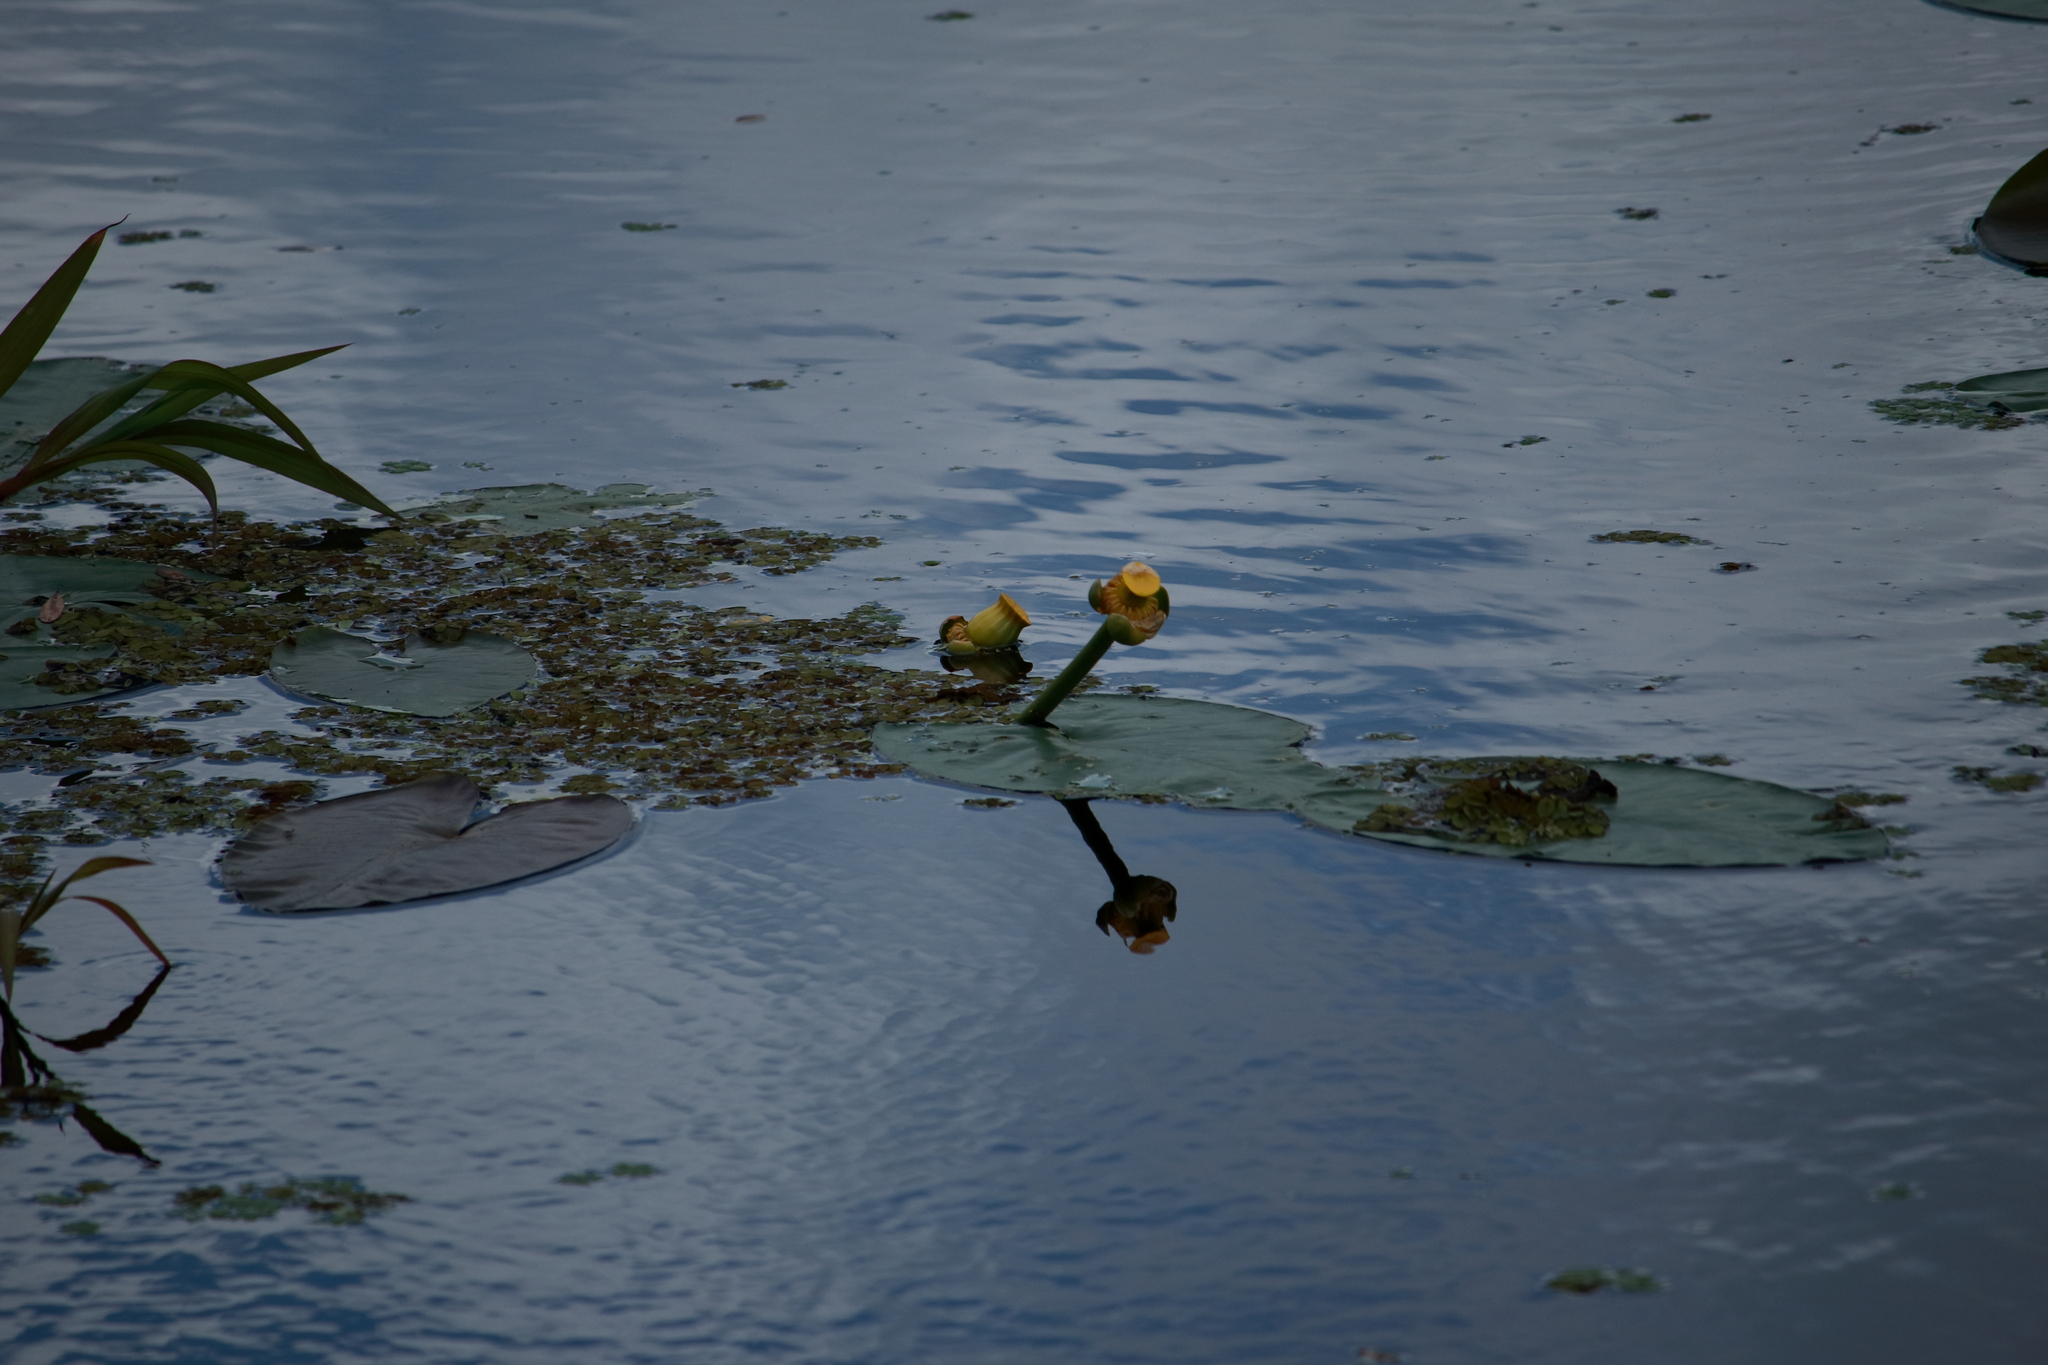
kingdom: Plantae
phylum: Tracheophyta
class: Magnoliopsida
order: Nymphaeales
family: Nymphaeaceae
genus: Nuphar
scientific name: Nuphar advena
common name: Spatter-dock
